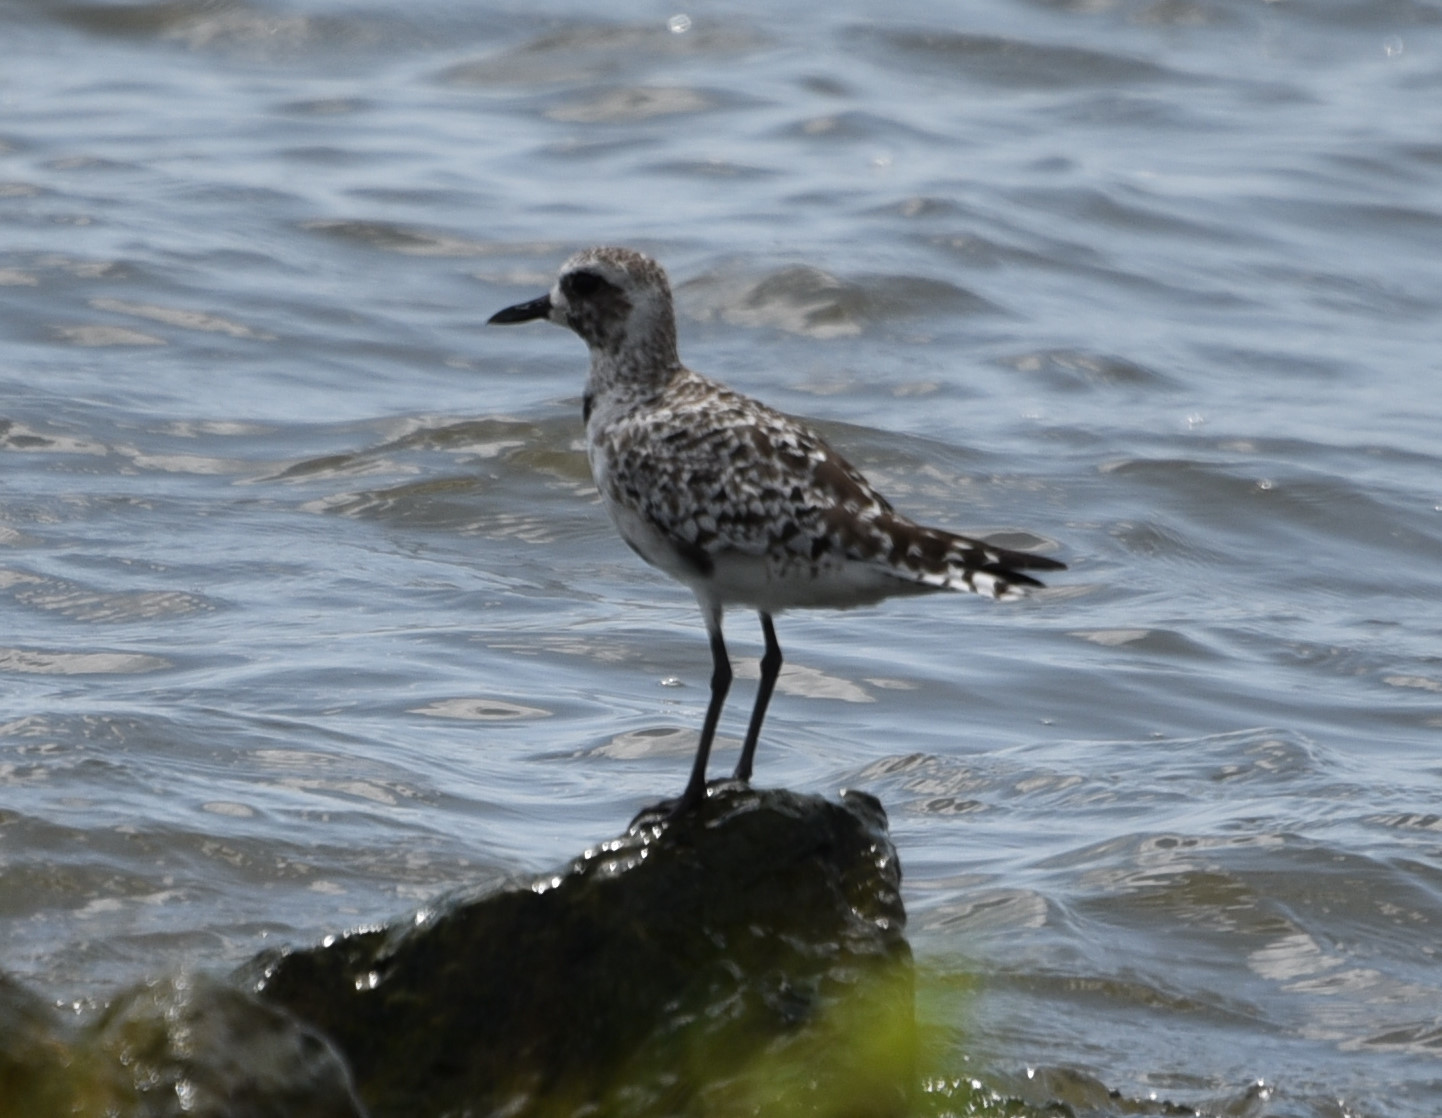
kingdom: Animalia
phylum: Chordata
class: Aves
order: Charadriiformes
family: Charadriidae
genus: Pluvialis
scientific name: Pluvialis squatarola
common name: Grey plover
